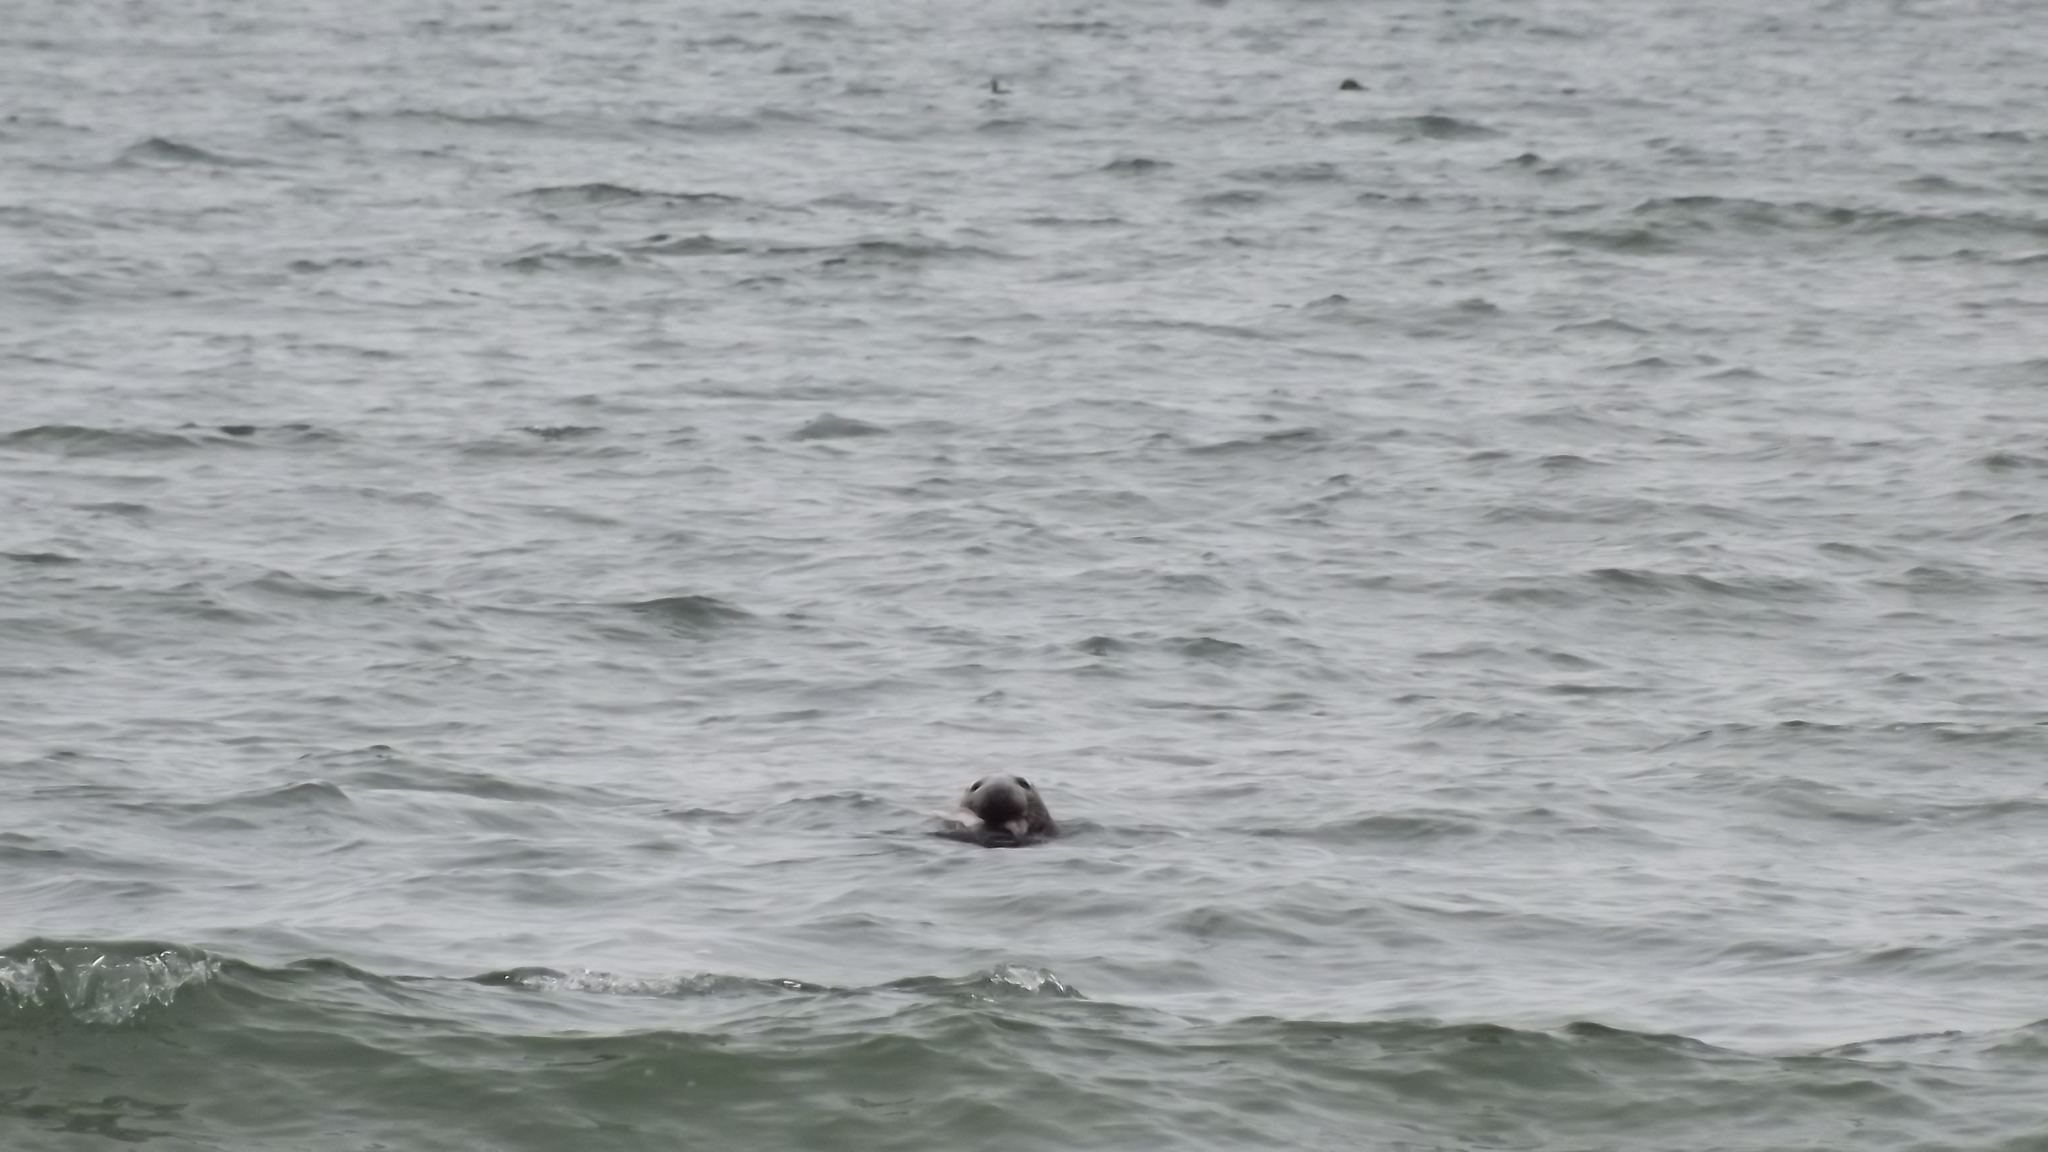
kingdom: Animalia
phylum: Chordata
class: Mammalia
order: Carnivora
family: Phocidae
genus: Halichoerus
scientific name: Halichoerus grypus
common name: Grey seal
